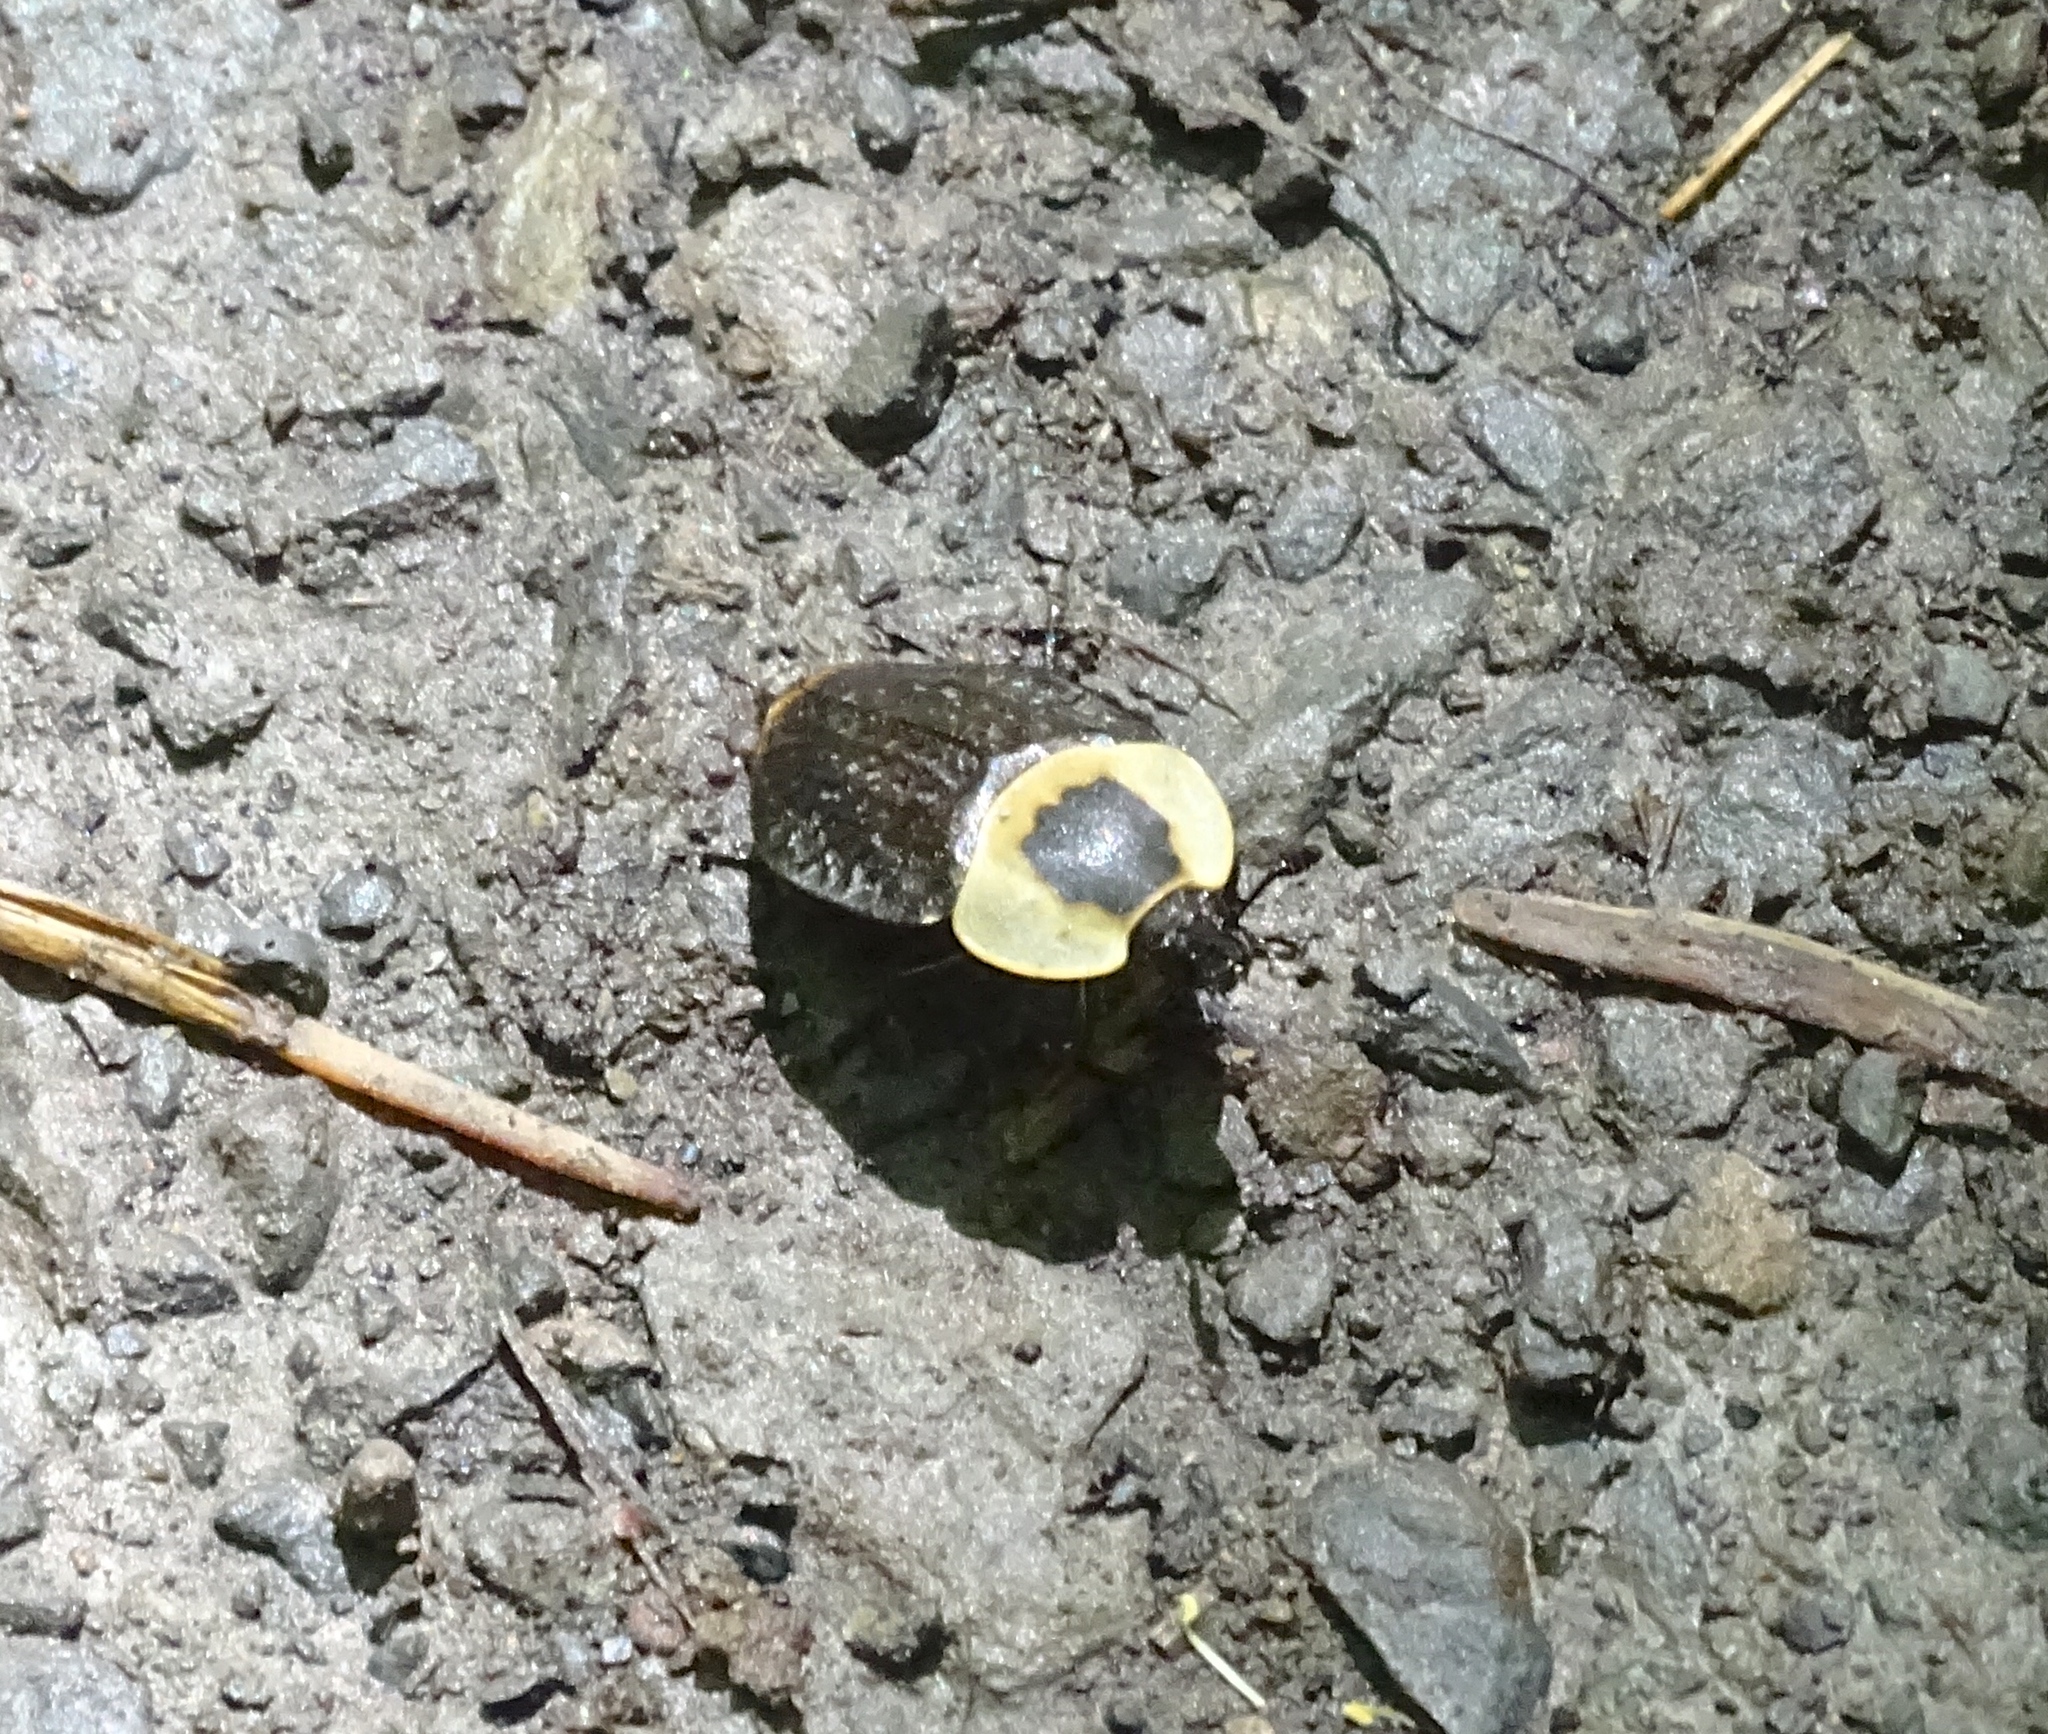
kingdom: Animalia
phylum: Arthropoda
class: Insecta
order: Coleoptera
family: Staphylinidae
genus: Necrophila
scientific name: Necrophila americana
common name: American carrion beetle
